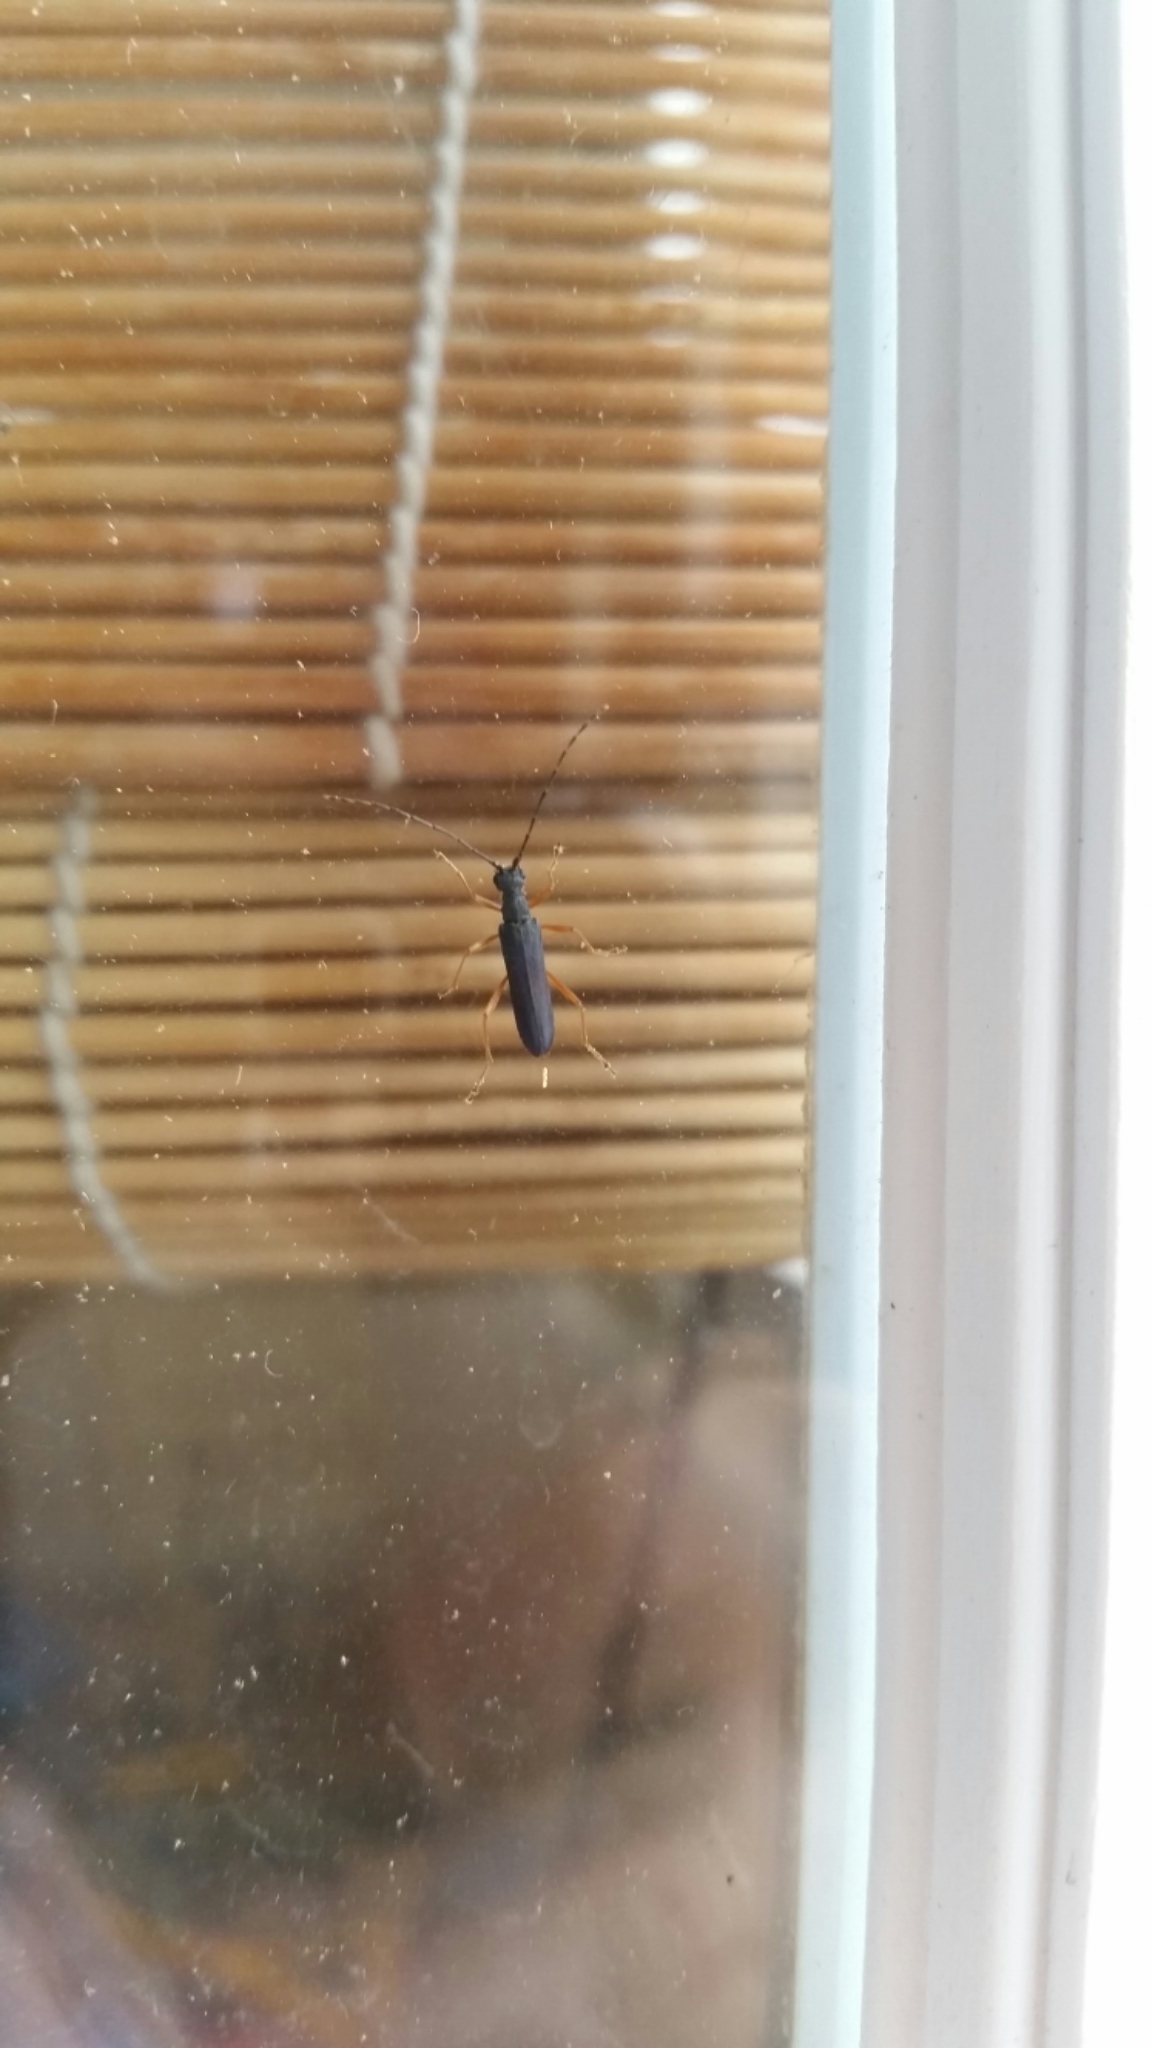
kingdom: Animalia
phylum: Arthropoda
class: Insecta
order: Coleoptera
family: Cerambycidae
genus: Encyclops
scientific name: Encyclops caerulea
